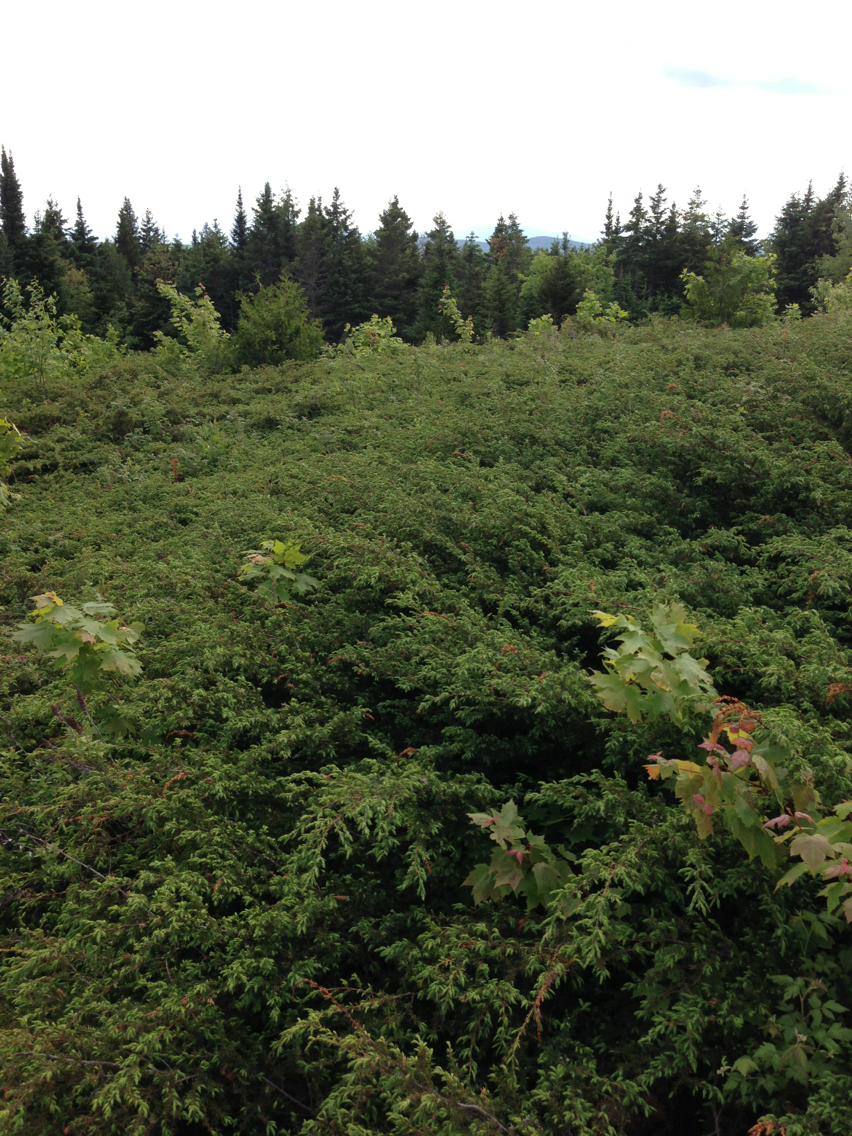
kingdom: Plantae
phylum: Tracheophyta
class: Pinopsida
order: Pinales
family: Cupressaceae
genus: Juniperus
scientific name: Juniperus communis
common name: Common juniper
